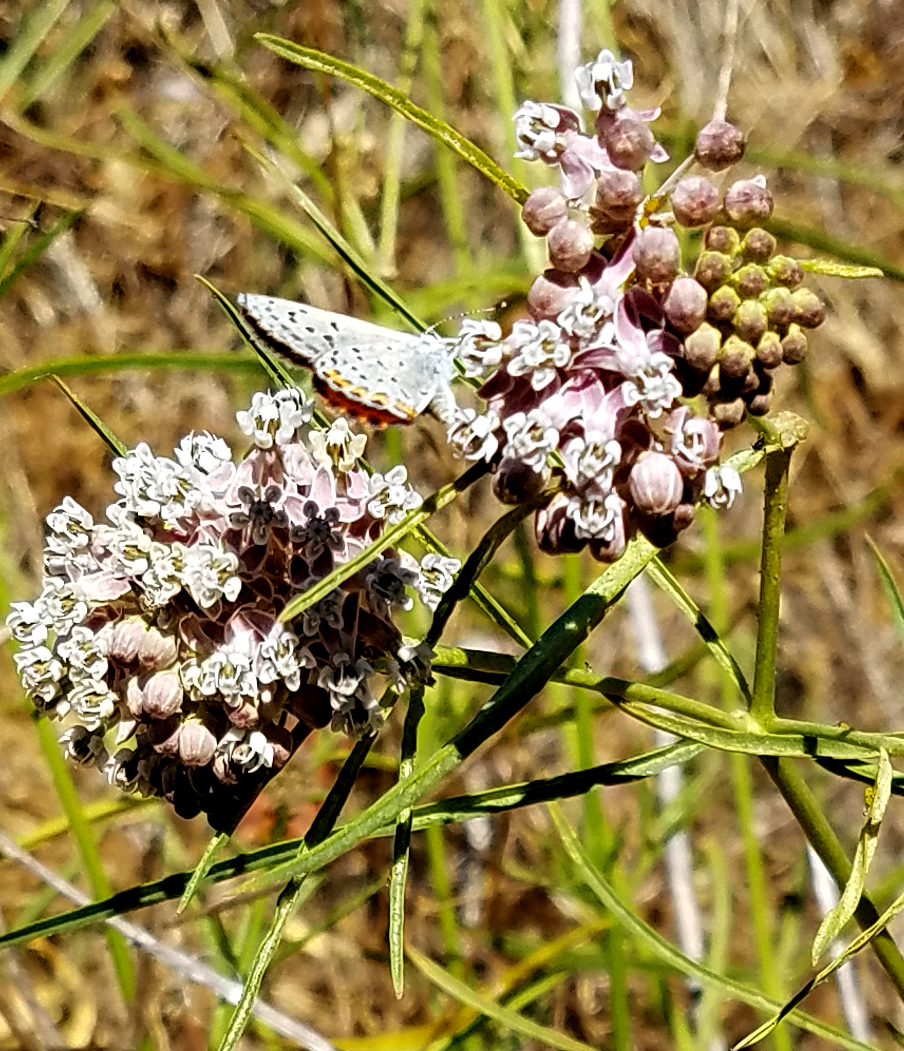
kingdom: Plantae
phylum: Tracheophyta
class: Magnoliopsida
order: Gentianales
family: Apocynaceae
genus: Asclepias
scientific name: Asclepias fascicularis
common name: Mexican milkweed
